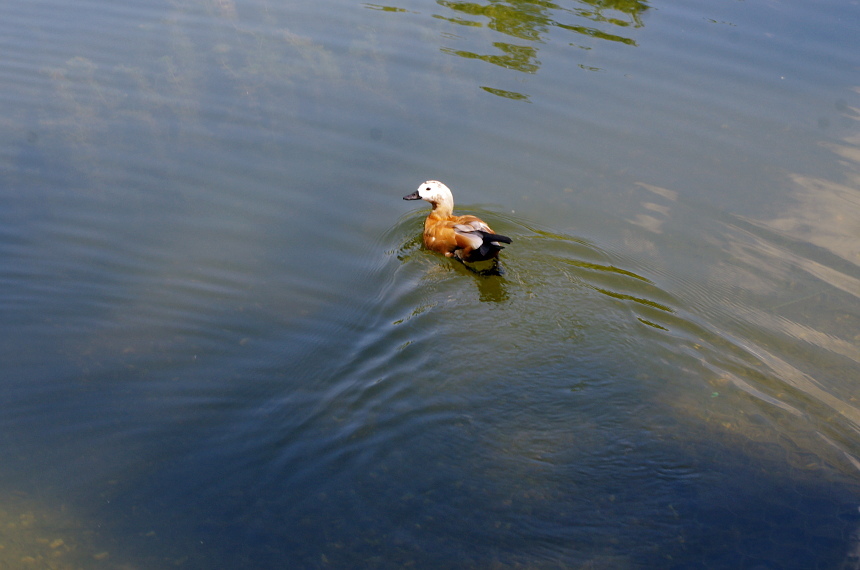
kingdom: Animalia
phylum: Chordata
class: Aves
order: Anseriformes
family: Anatidae
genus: Tadorna
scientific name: Tadorna ferruginea
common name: Ruddy shelduck
